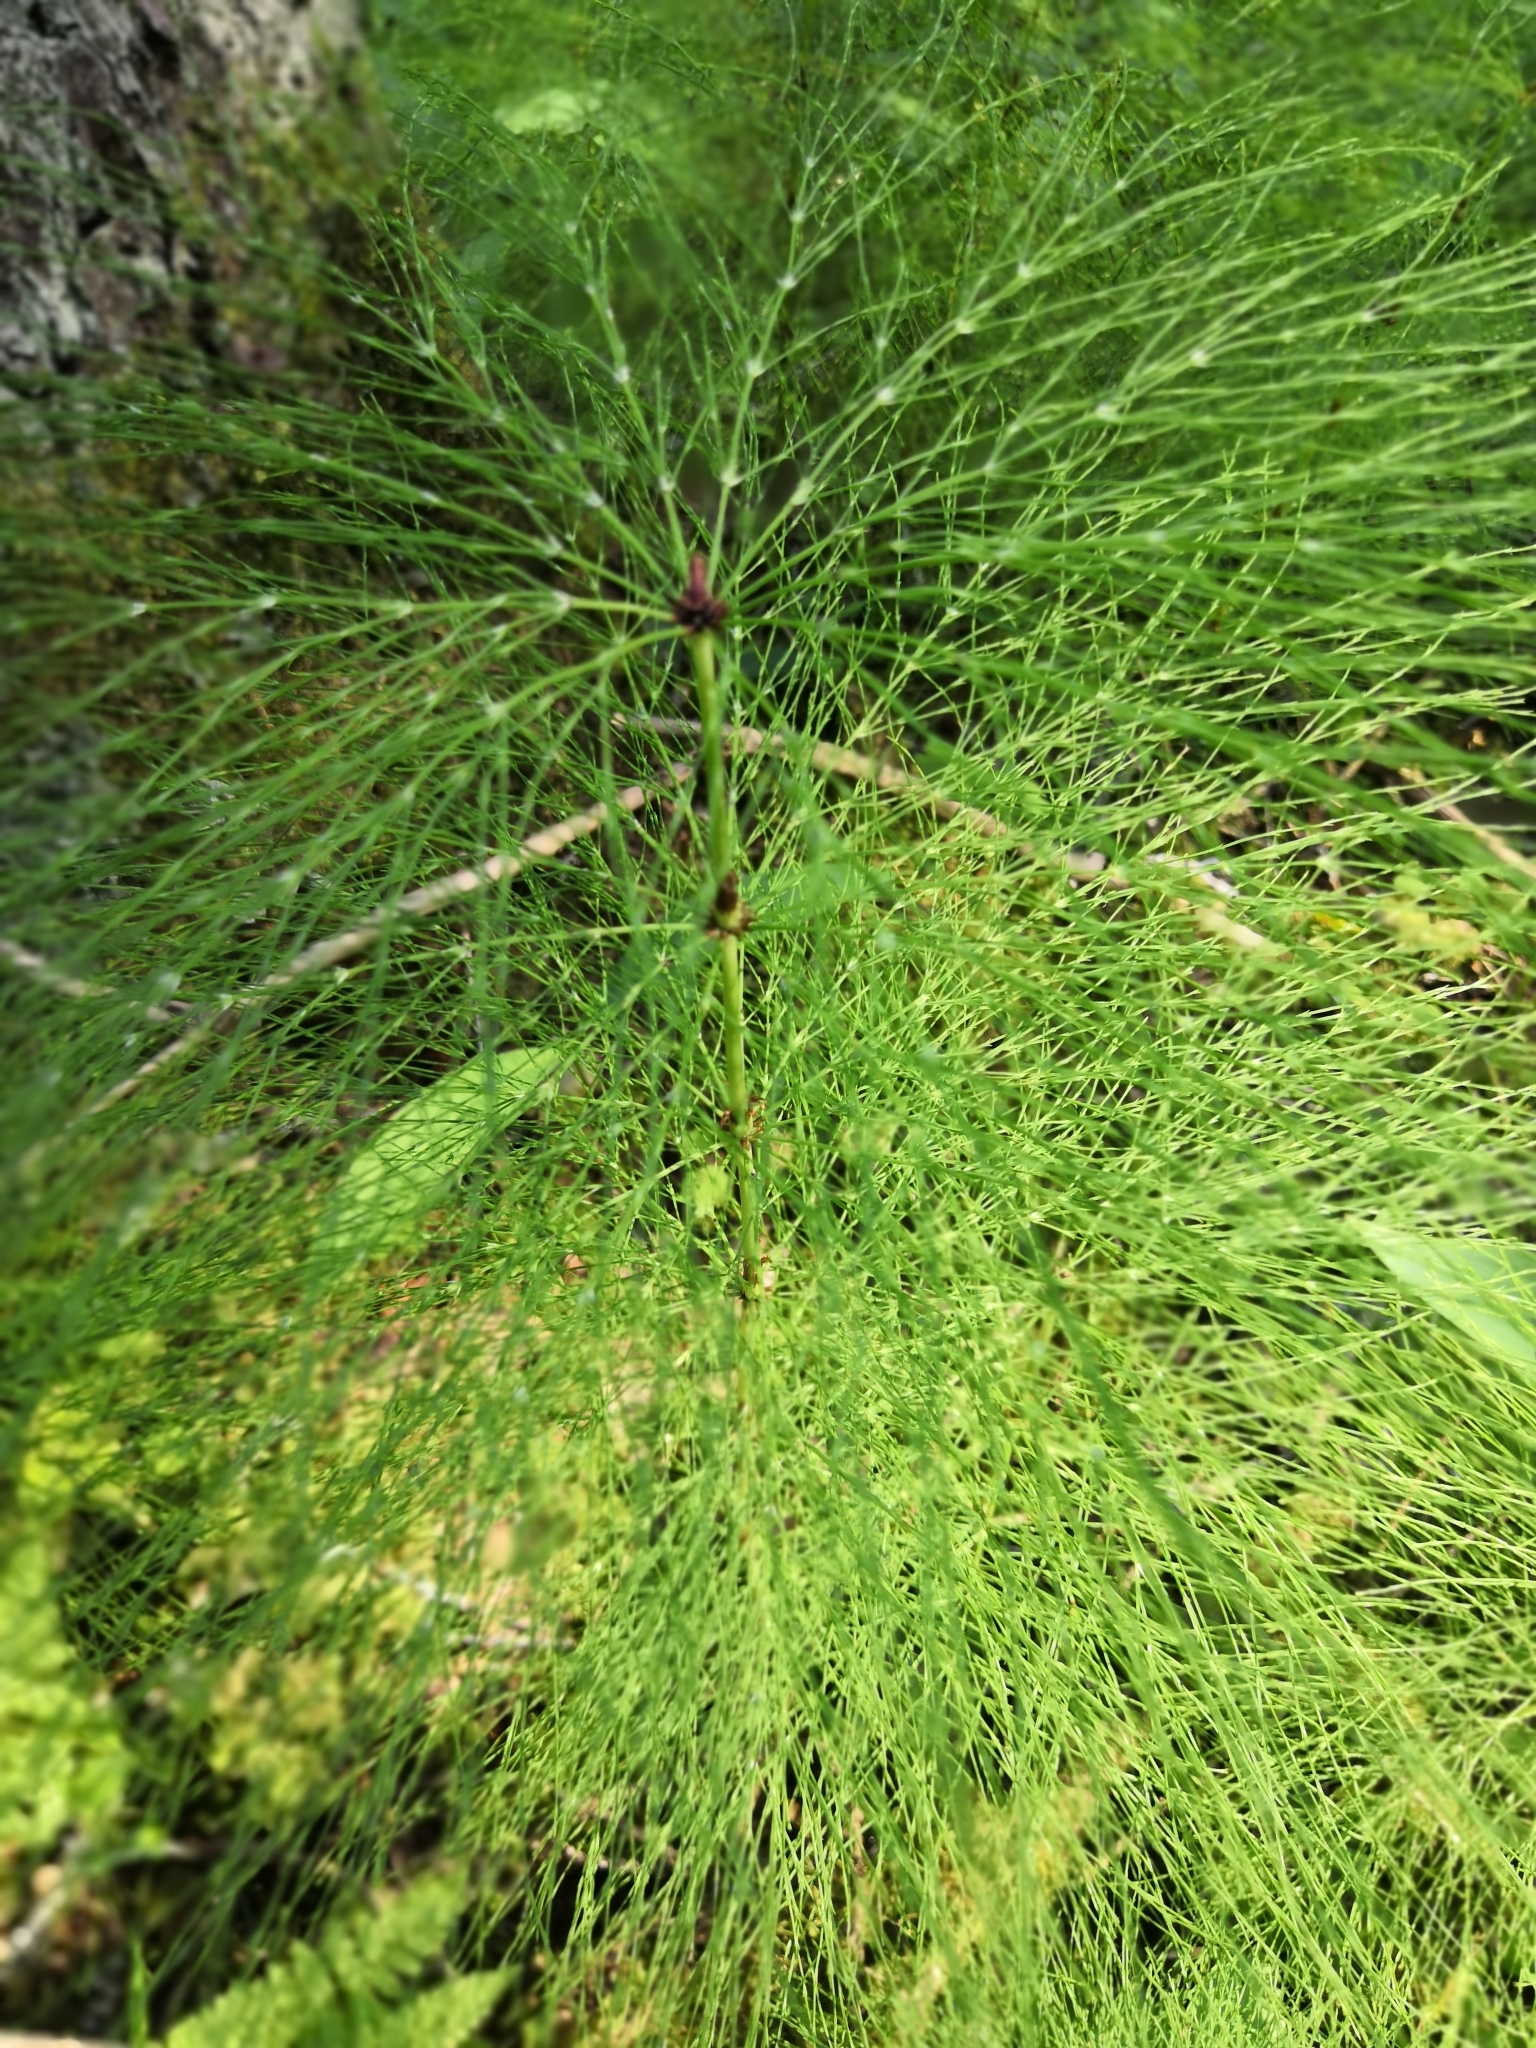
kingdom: Plantae
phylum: Tracheophyta
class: Polypodiopsida
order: Equisetales
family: Equisetaceae
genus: Equisetum
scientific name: Equisetum sylvaticum
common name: Wood horsetail
